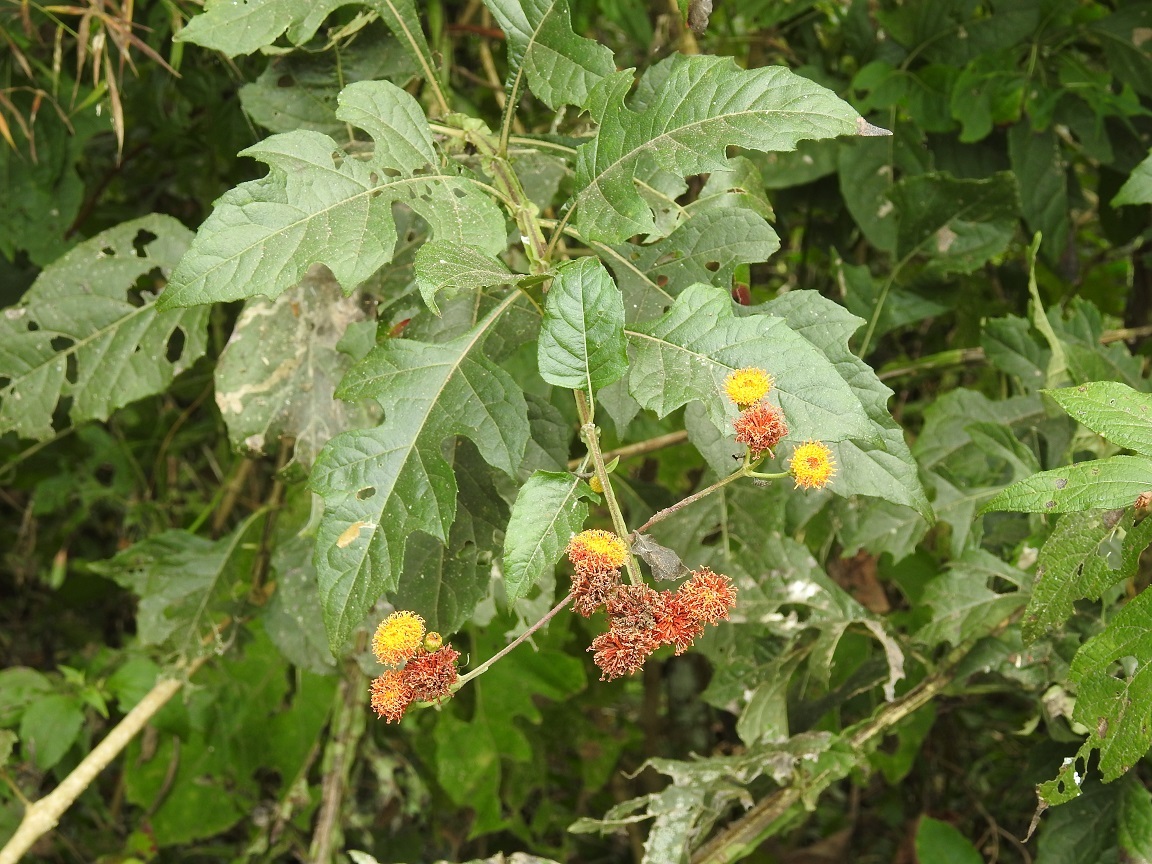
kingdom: Plantae
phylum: Tracheophyta
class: Magnoliopsida
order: Asterales
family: Asteraceae
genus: Verbesina
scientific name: Verbesina ovatifolia
